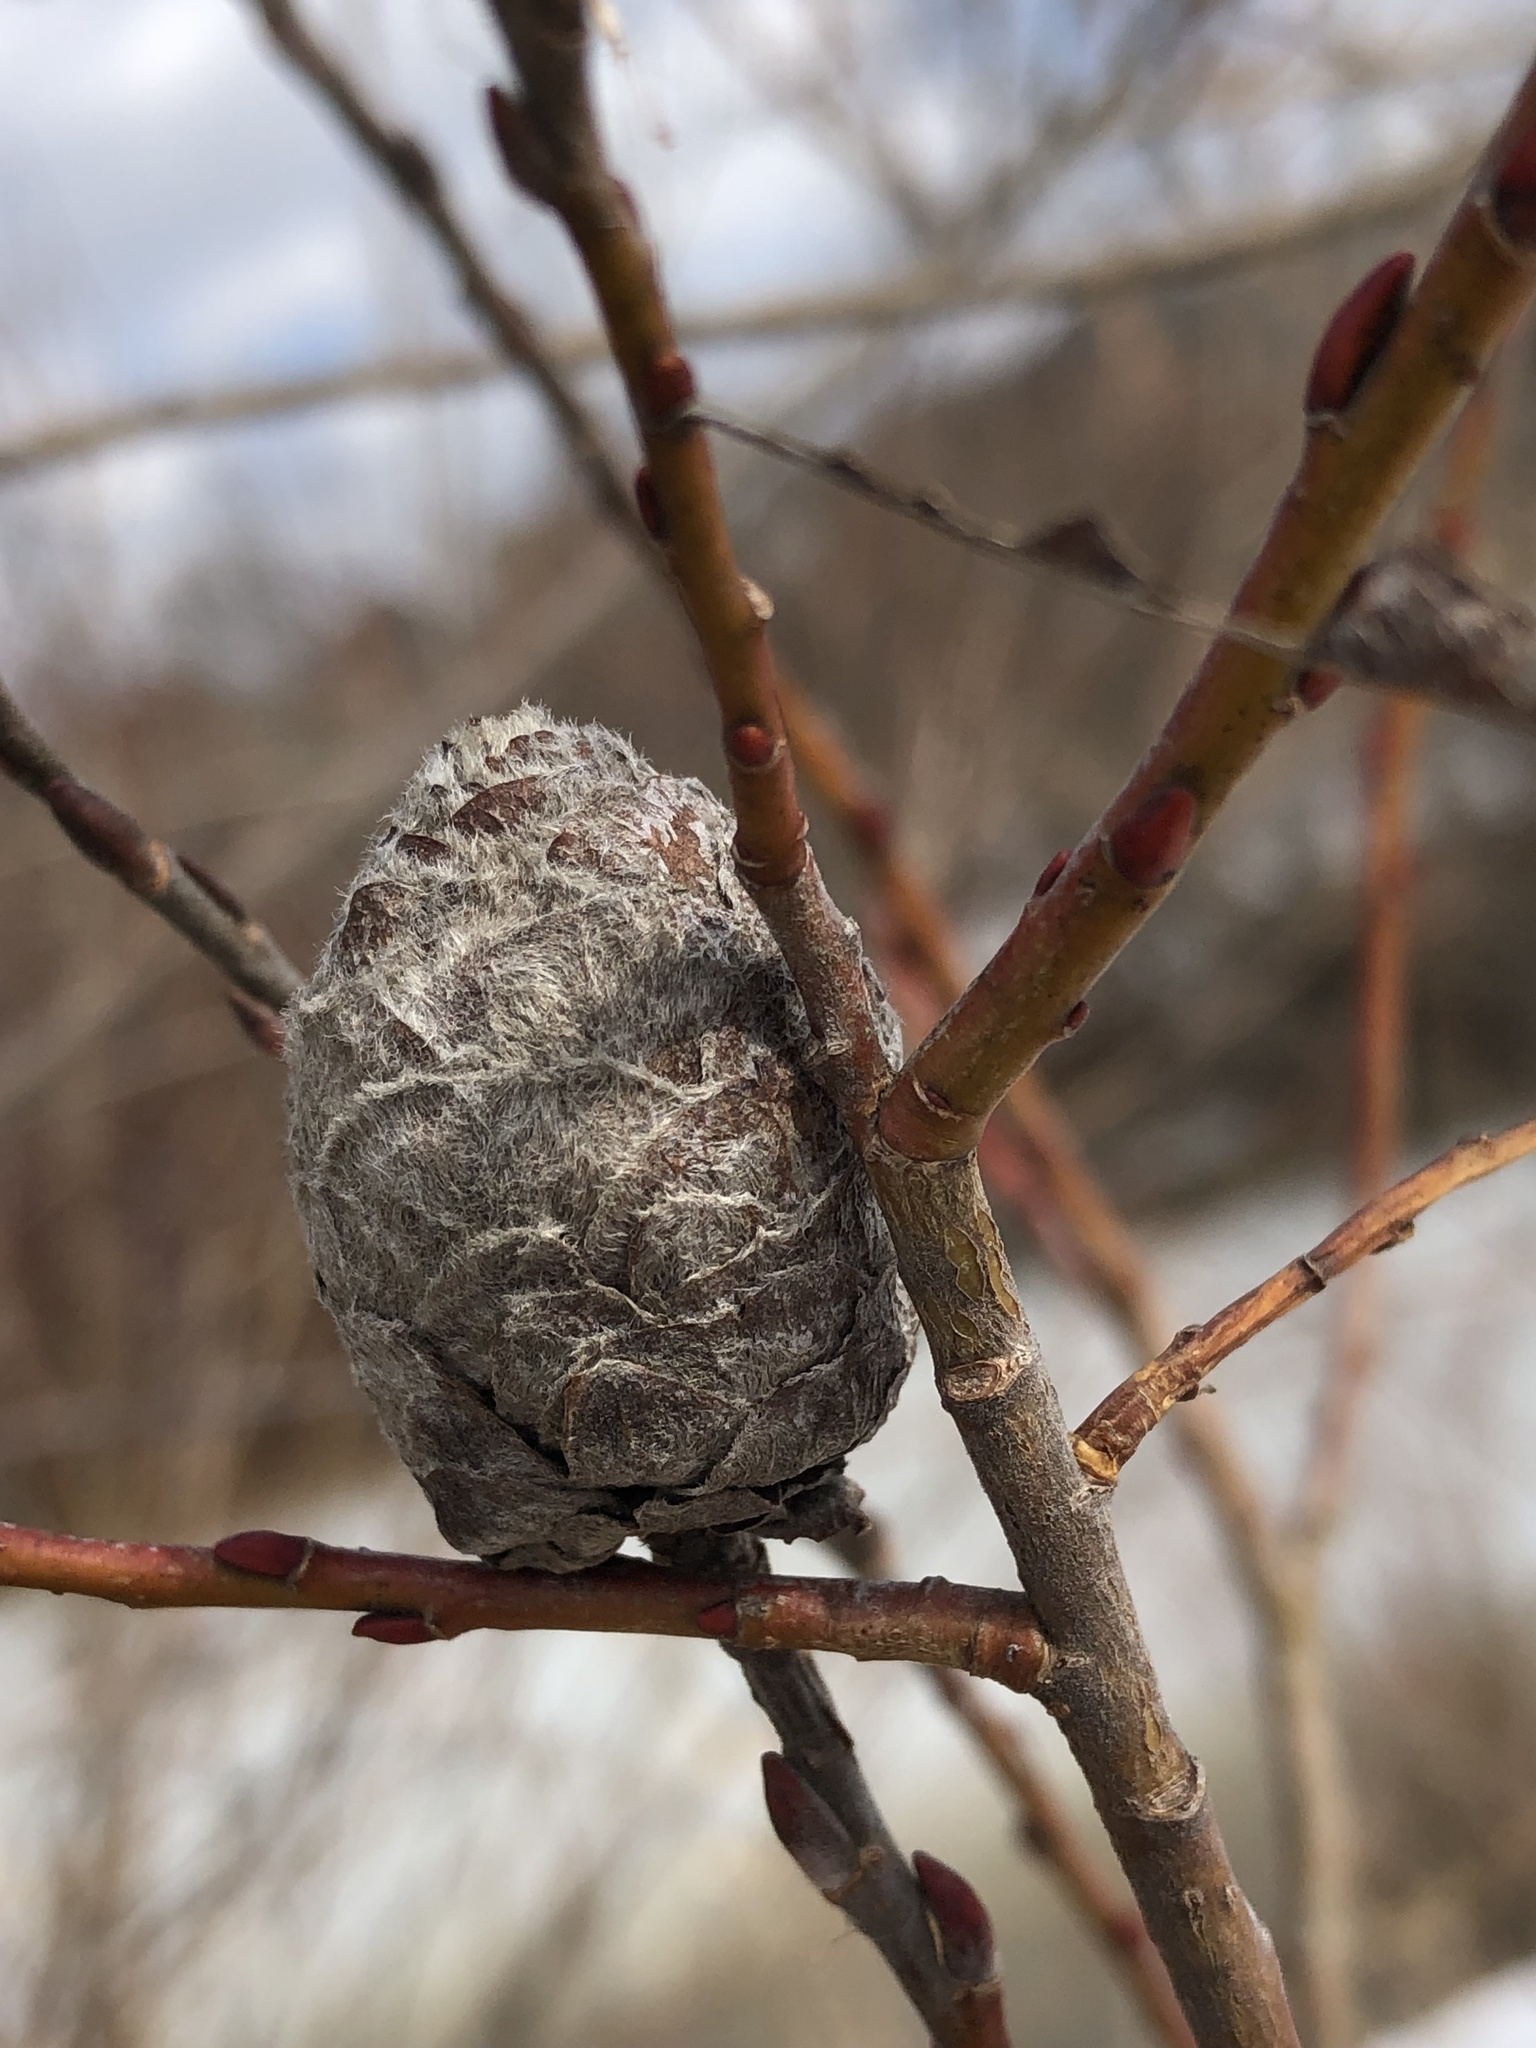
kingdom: Animalia
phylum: Arthropoda
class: Insecta
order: Diptera
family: Cecidomyiidae
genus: Rabdophaga
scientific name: Rabdophaga strobiloides
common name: Willow pinecone gall midge
